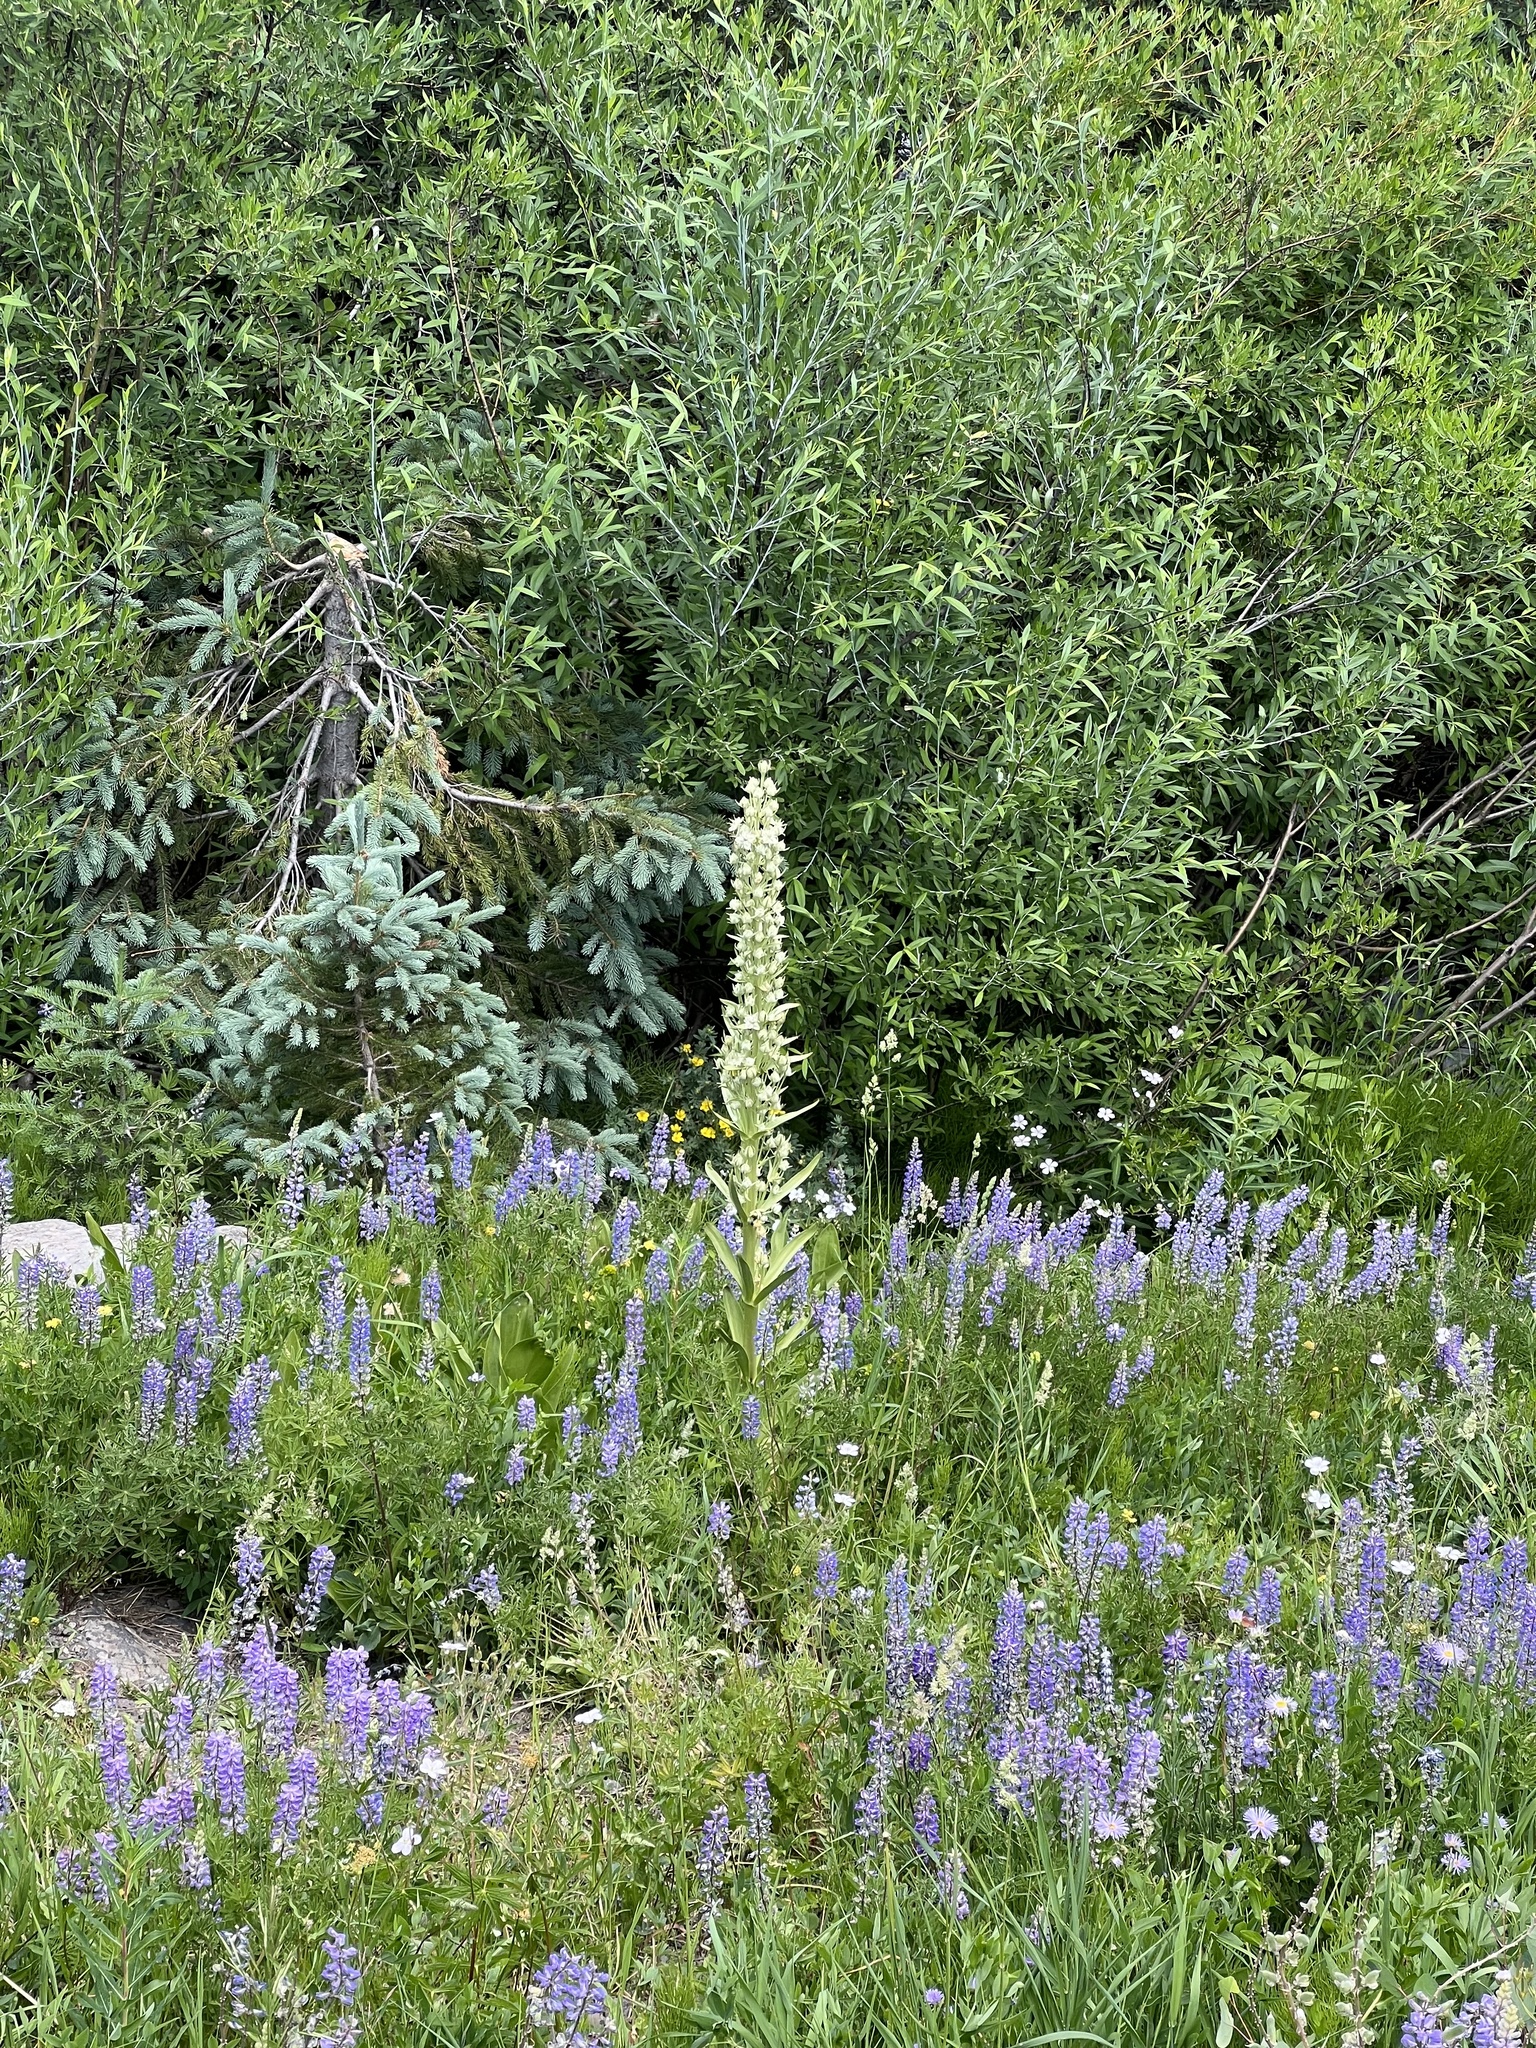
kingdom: Plantae
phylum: Tracheophyta
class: Magnoliopsida
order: Gentianales
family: Gentianaceae
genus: Frasera
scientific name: Frasera speciosa
